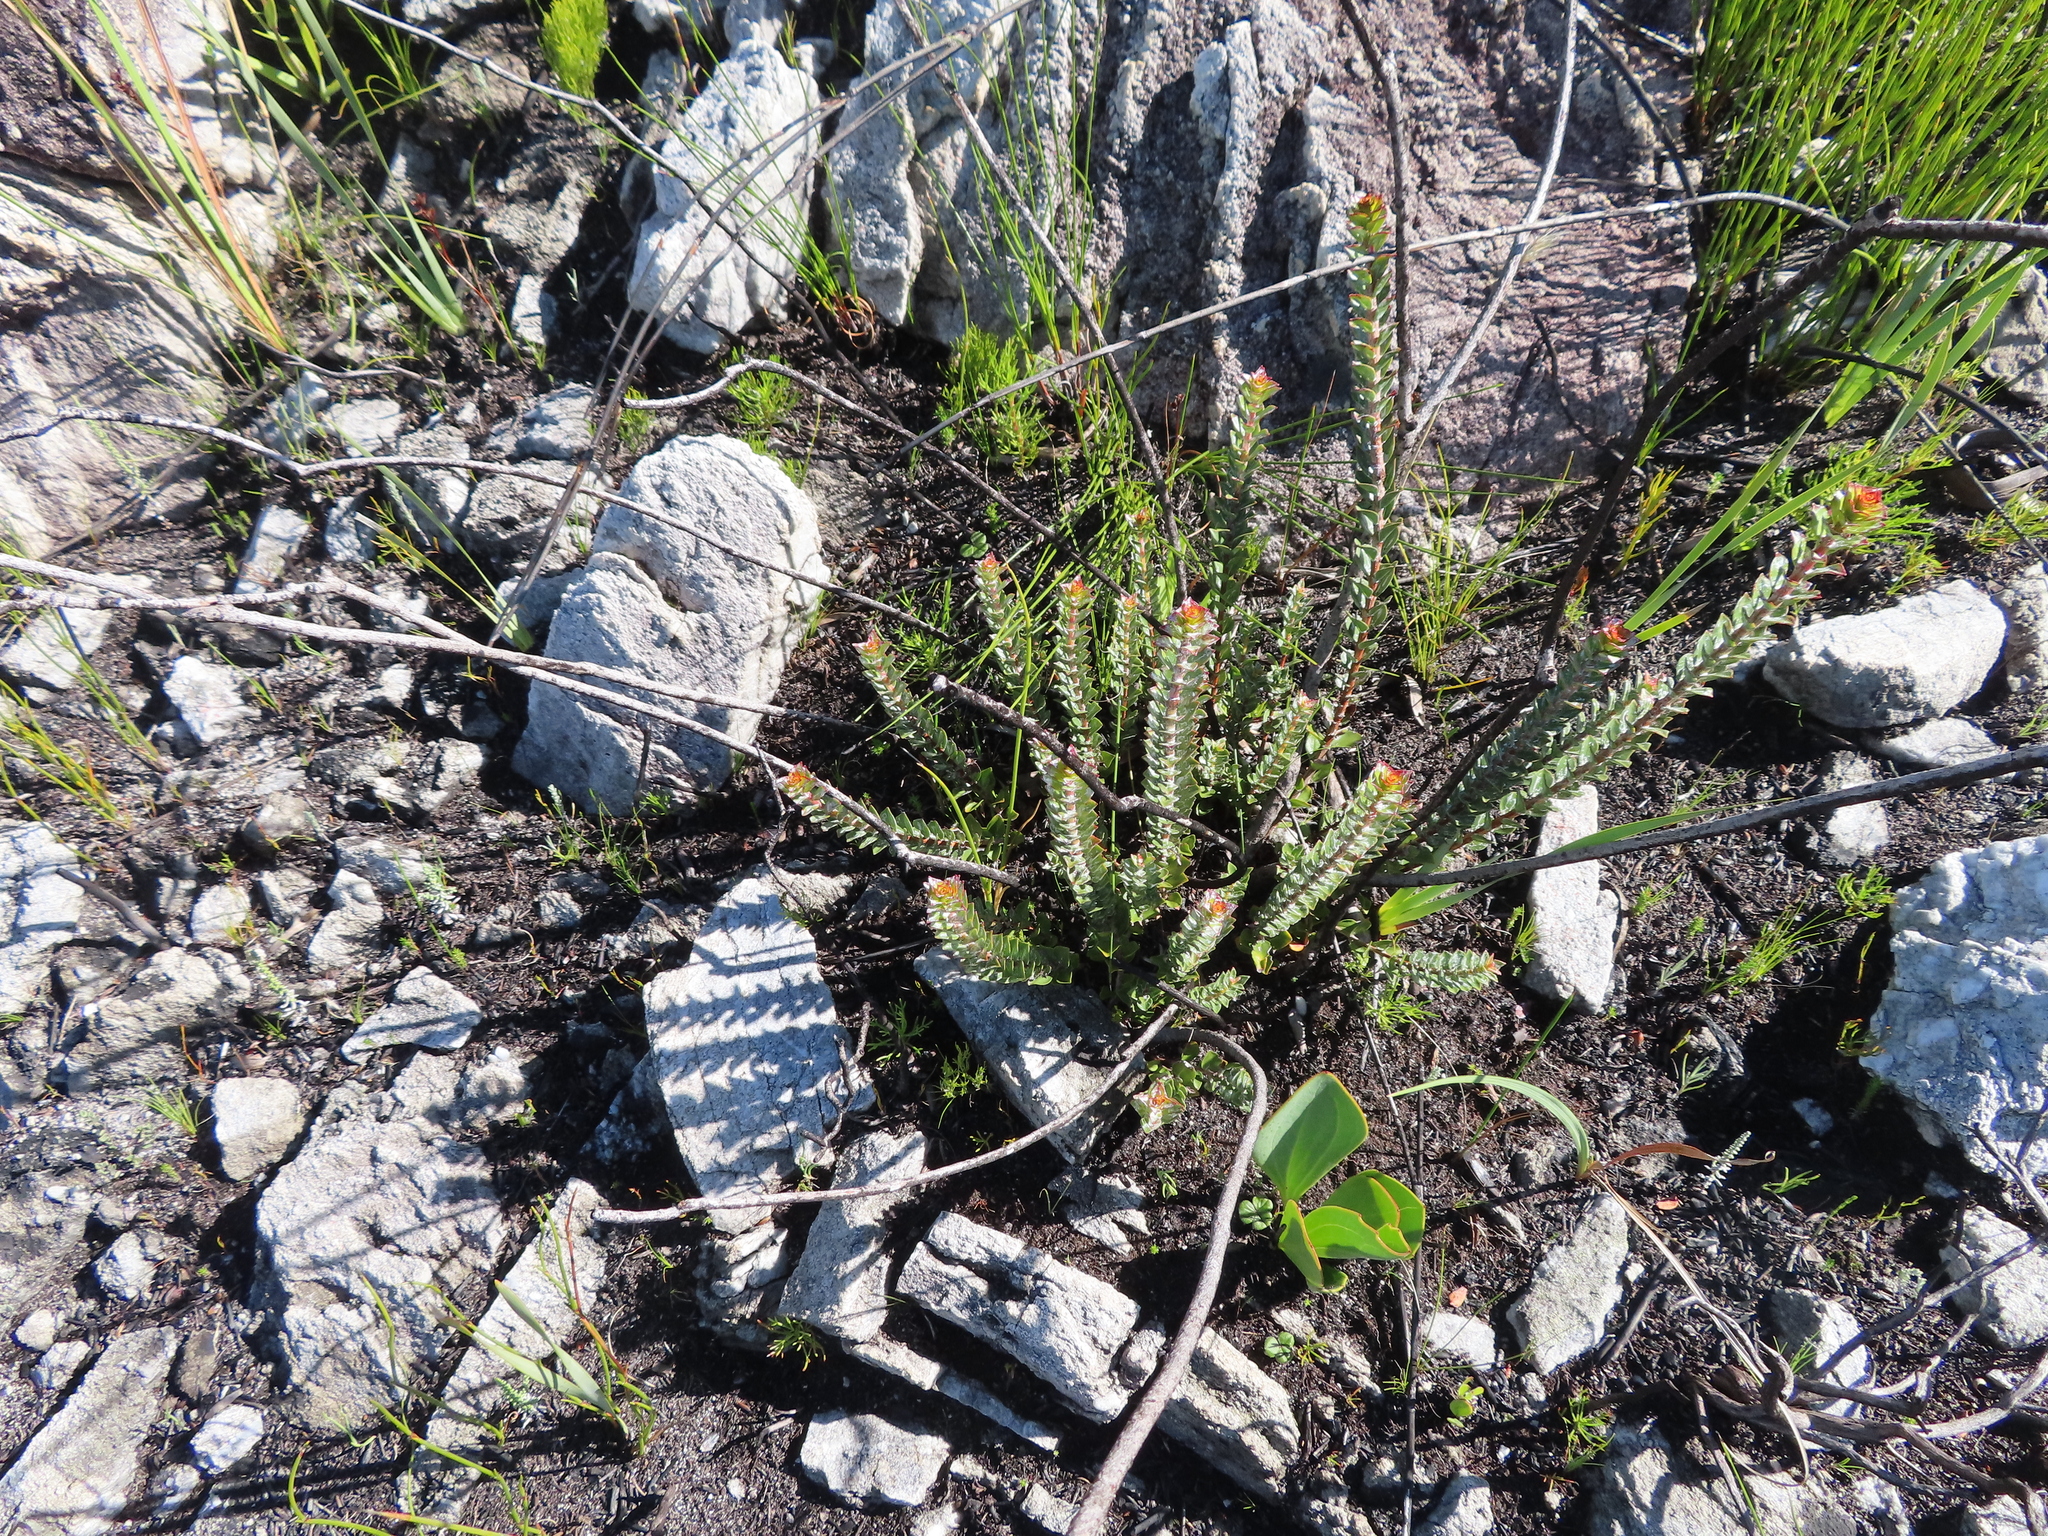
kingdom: Plantae
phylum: Tracheophyta
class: Magnoliopsida
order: Myrtales
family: Penaeaceae
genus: Saltera
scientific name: Saltera sarcocolla
